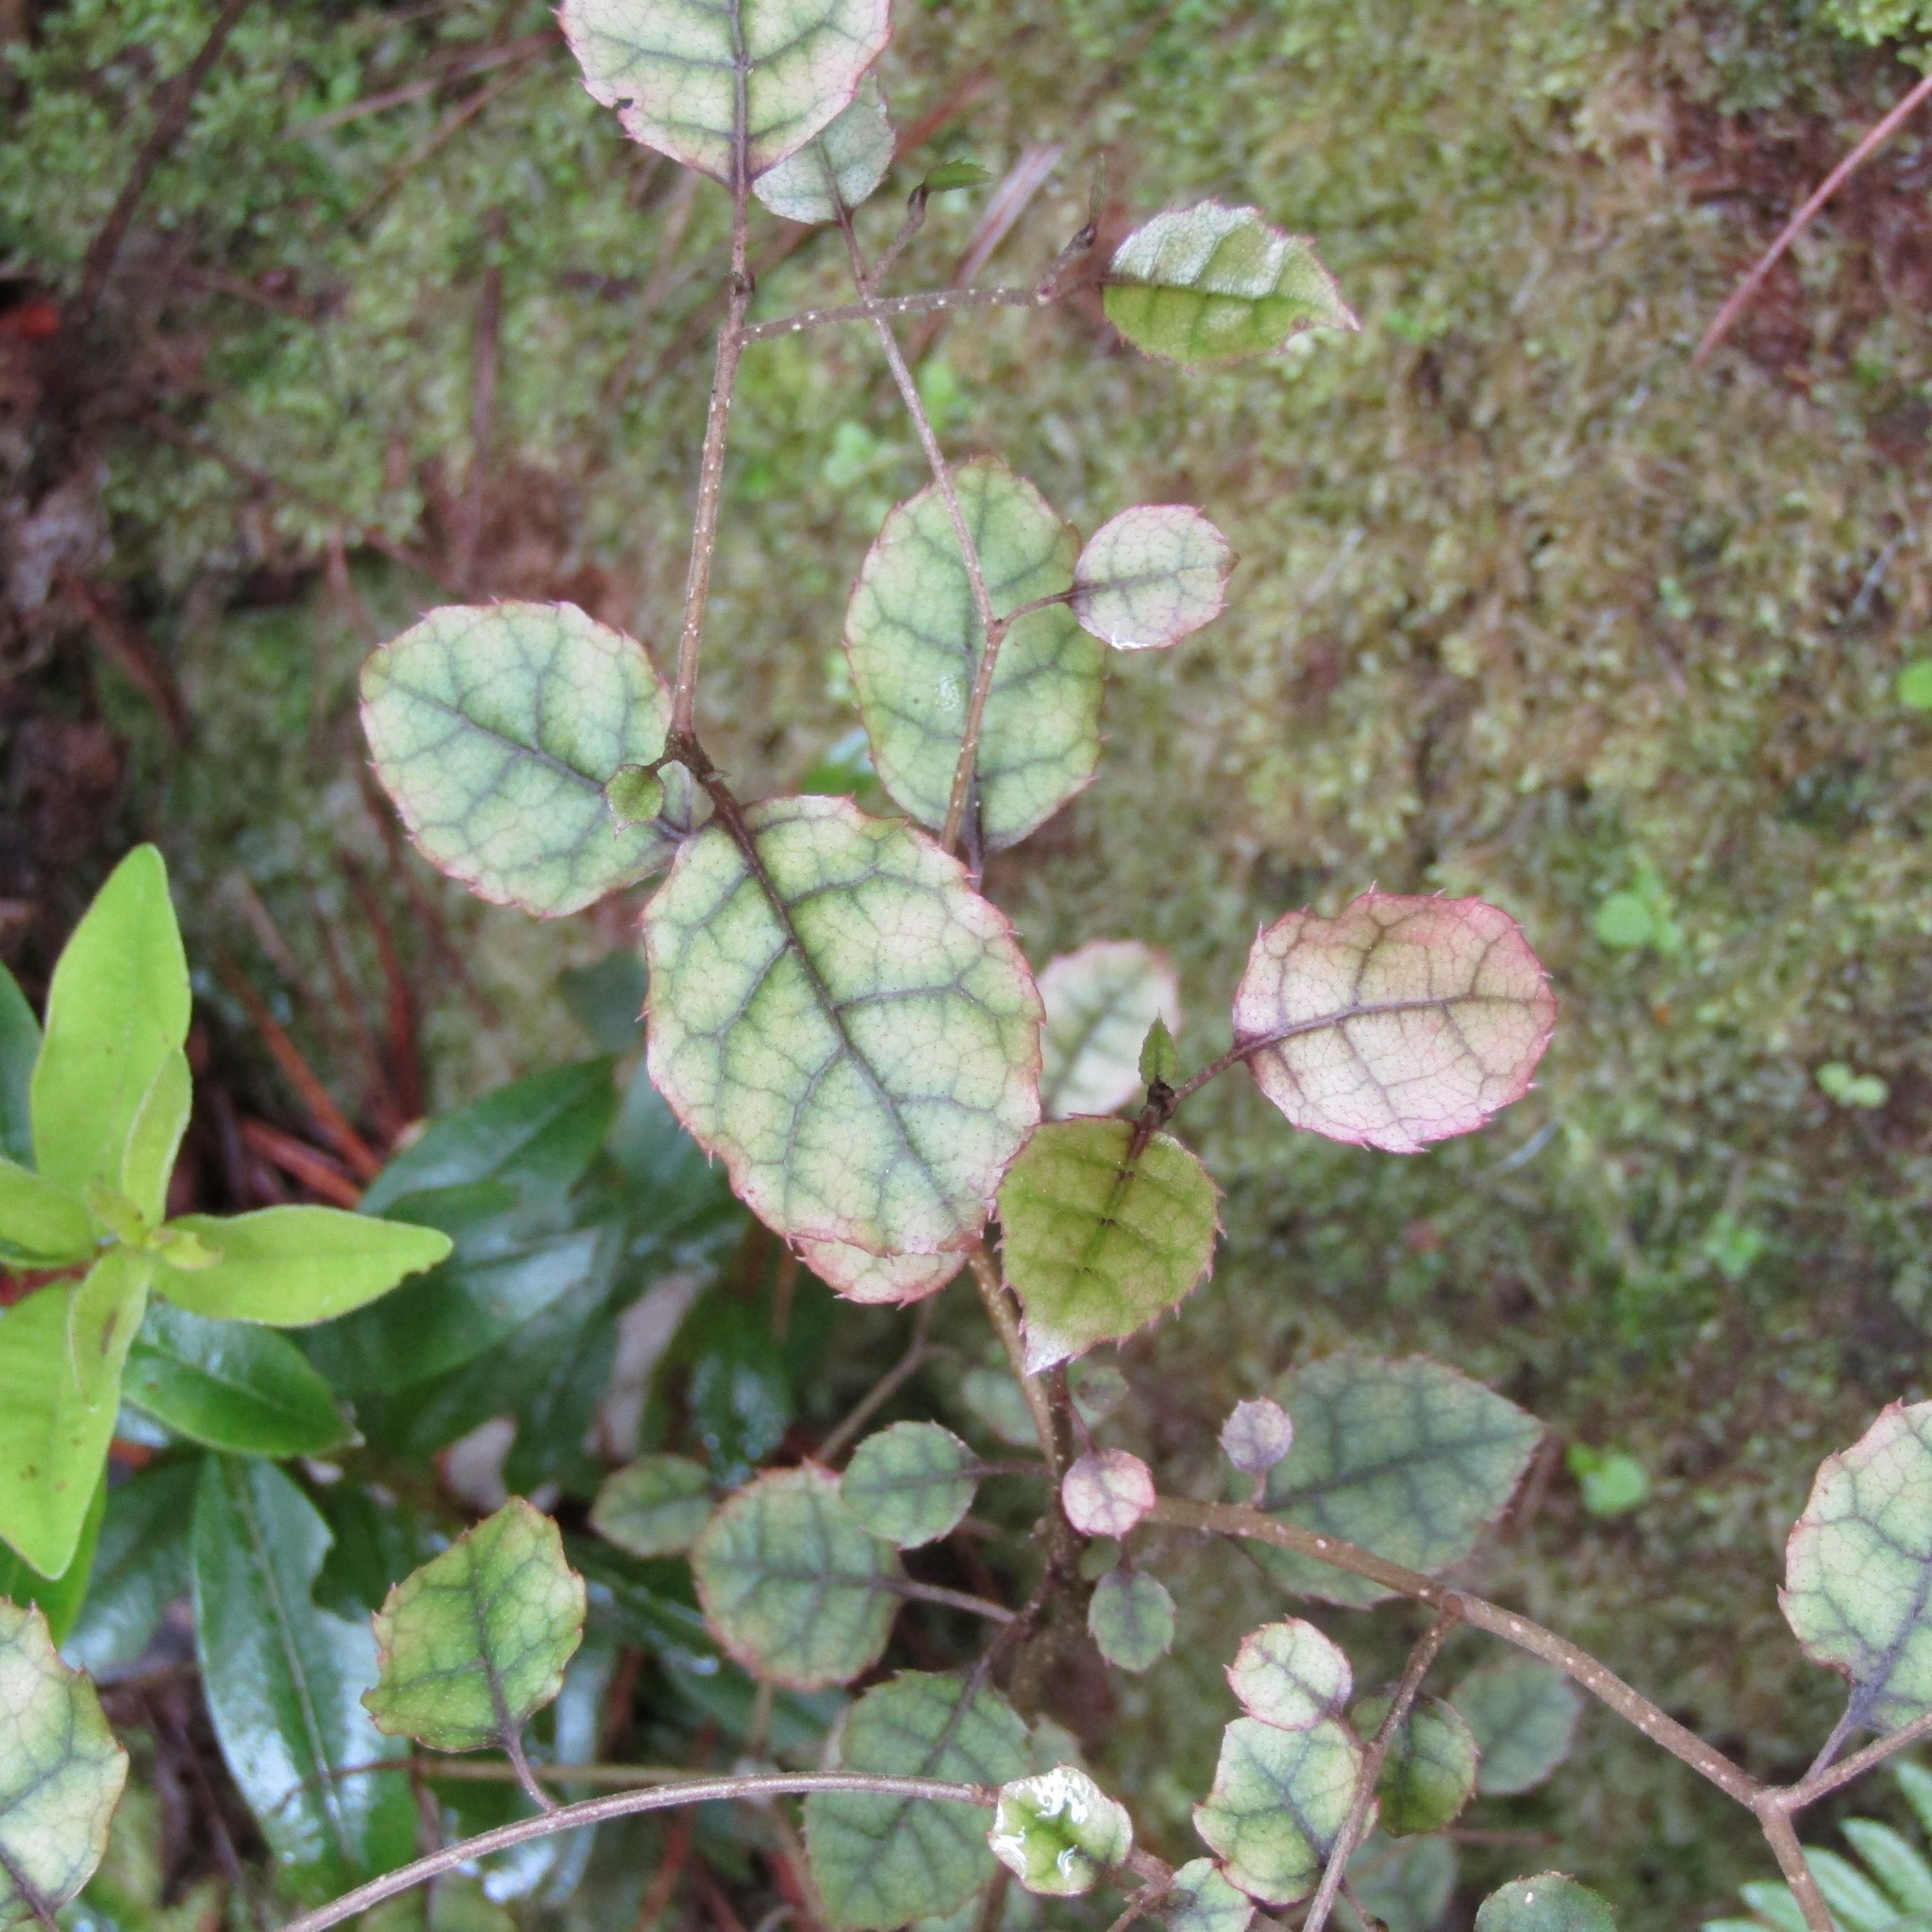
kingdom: Plantae
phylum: Tracheophyta
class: Magnoliopsida
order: Asterales
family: Rousseaceae
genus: Carpodetus
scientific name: Carpodetus serratus
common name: White mapau
